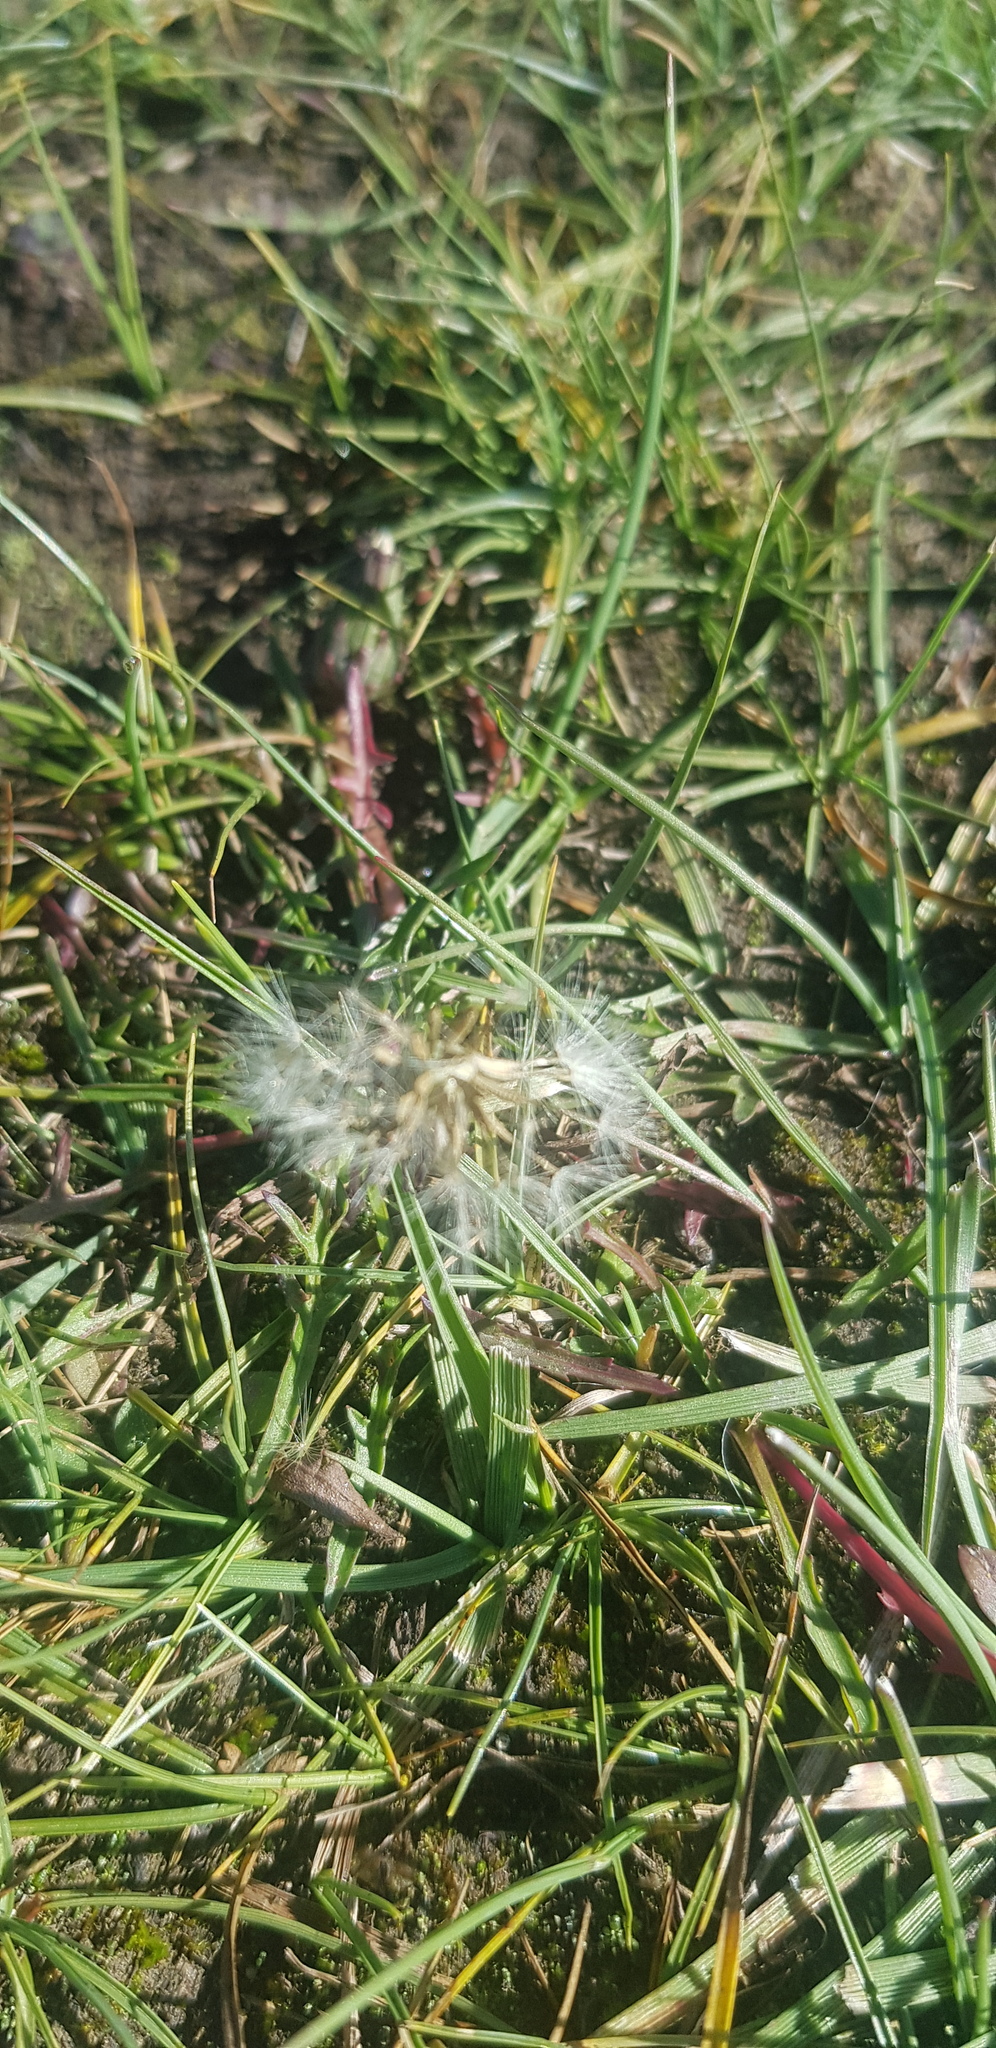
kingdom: Plantae
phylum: Tracheophyta
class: Magnoliopsida
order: Asterales
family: Asteraceae
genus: Taraxacum
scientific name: Taraxacum officinale
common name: Common dandelion
